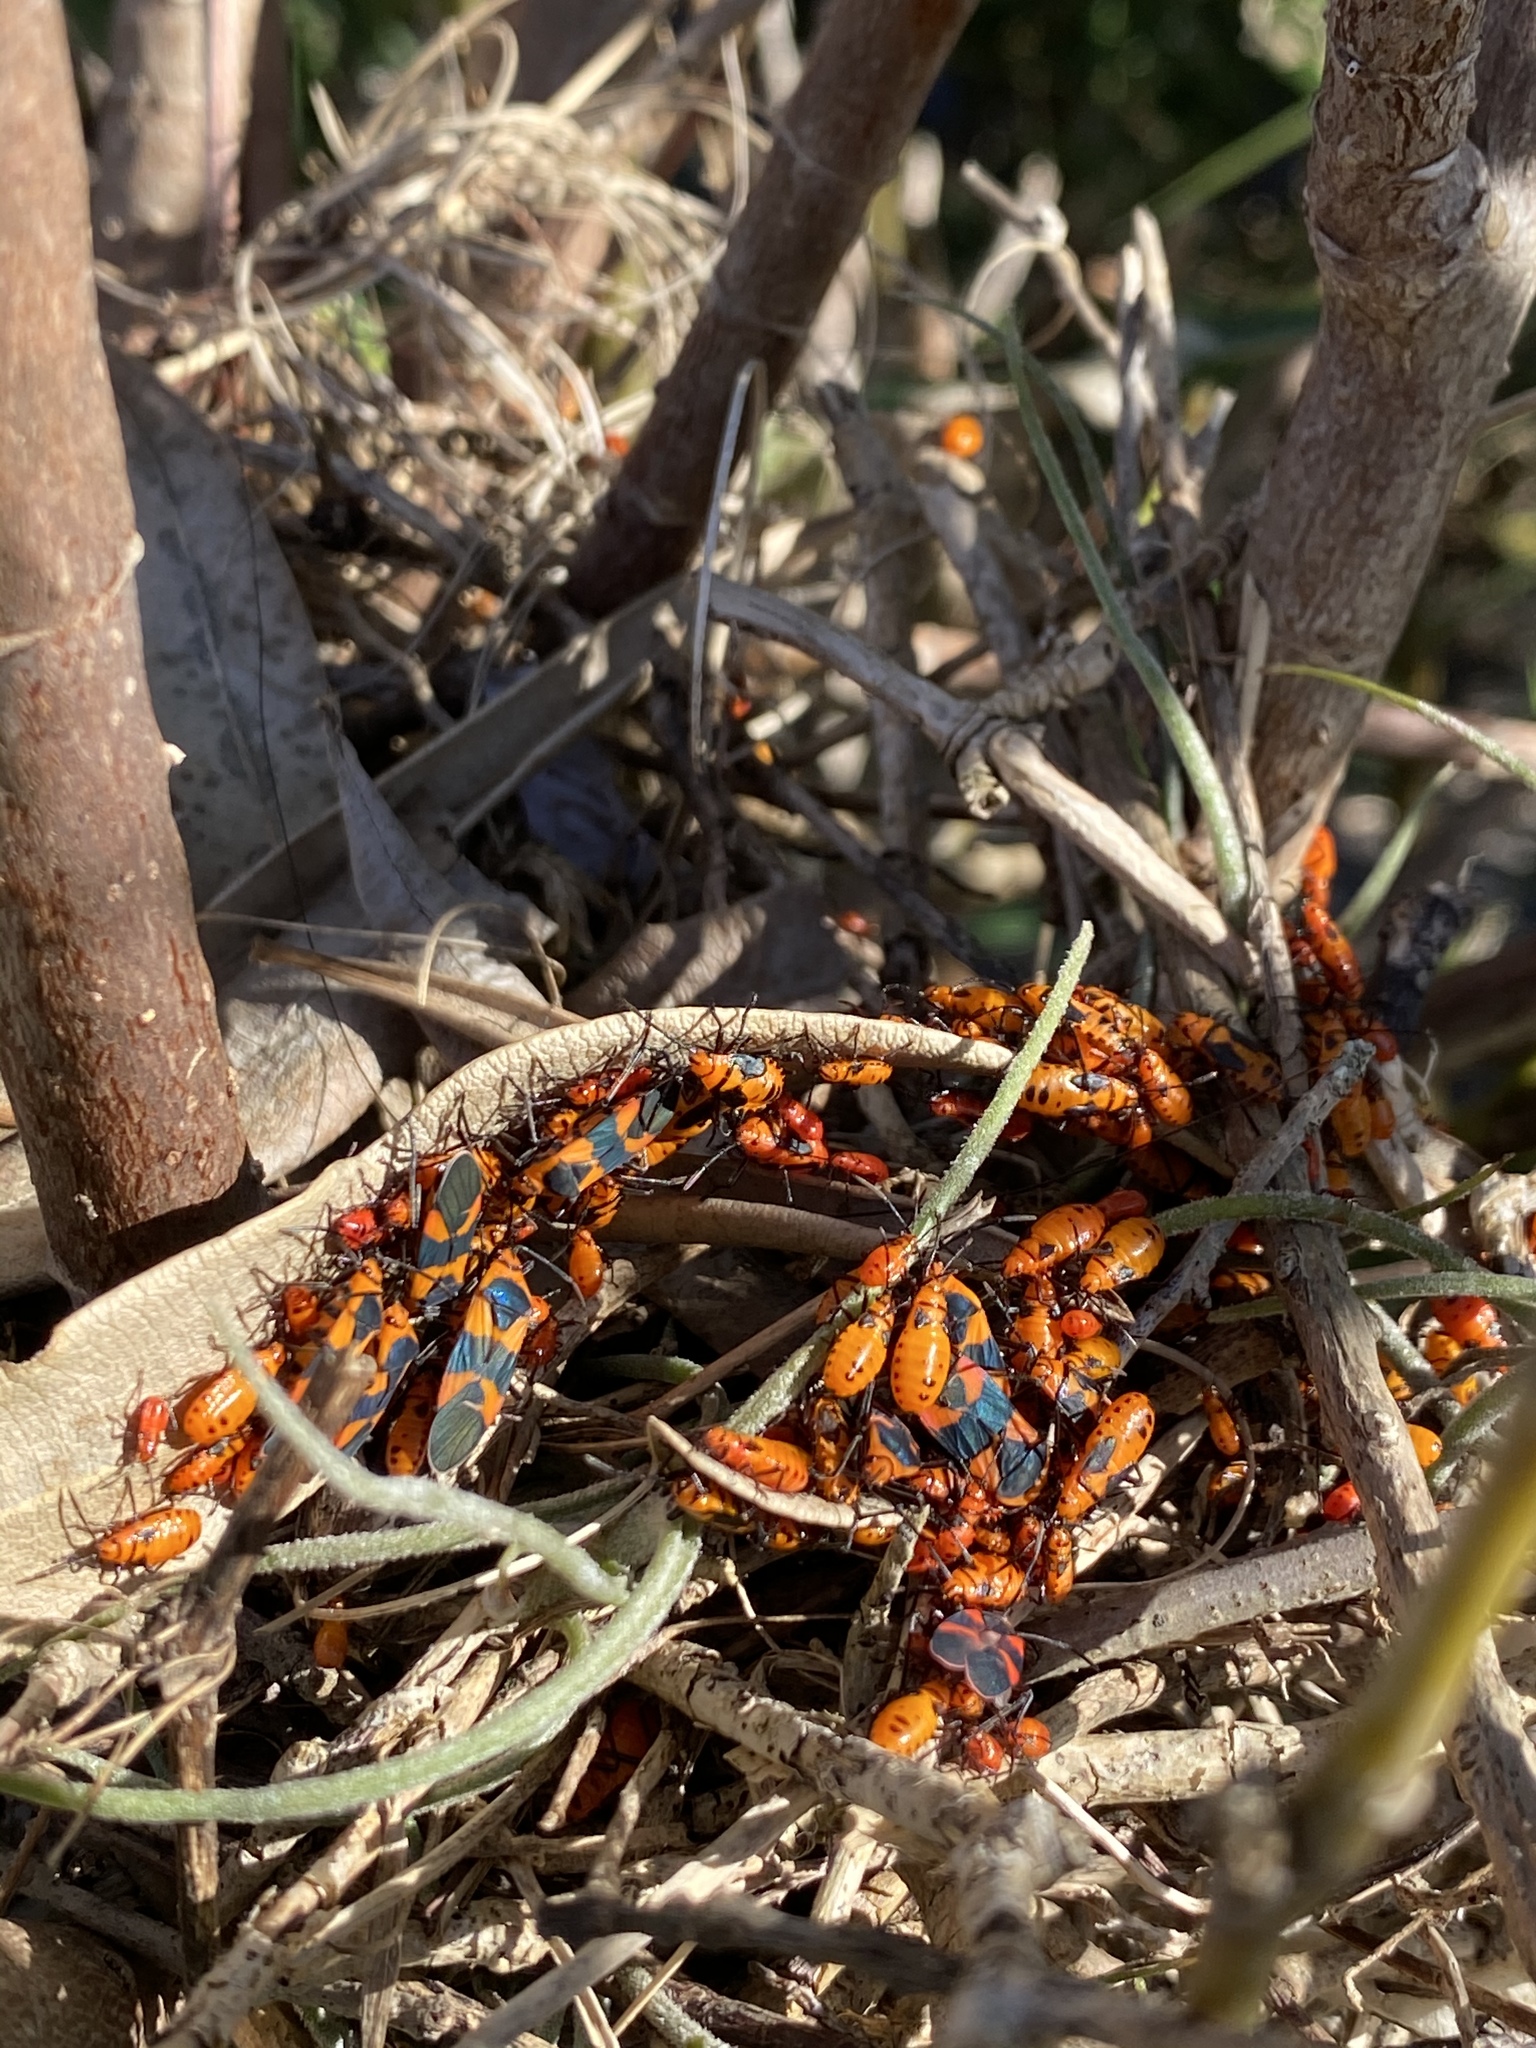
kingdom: Animalia
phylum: Arthropoda
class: Insecta
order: Hemiptera
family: Lygaeidae
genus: Oncopeltus
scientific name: Oncopeltus aulicus
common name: Lygaeid bug
